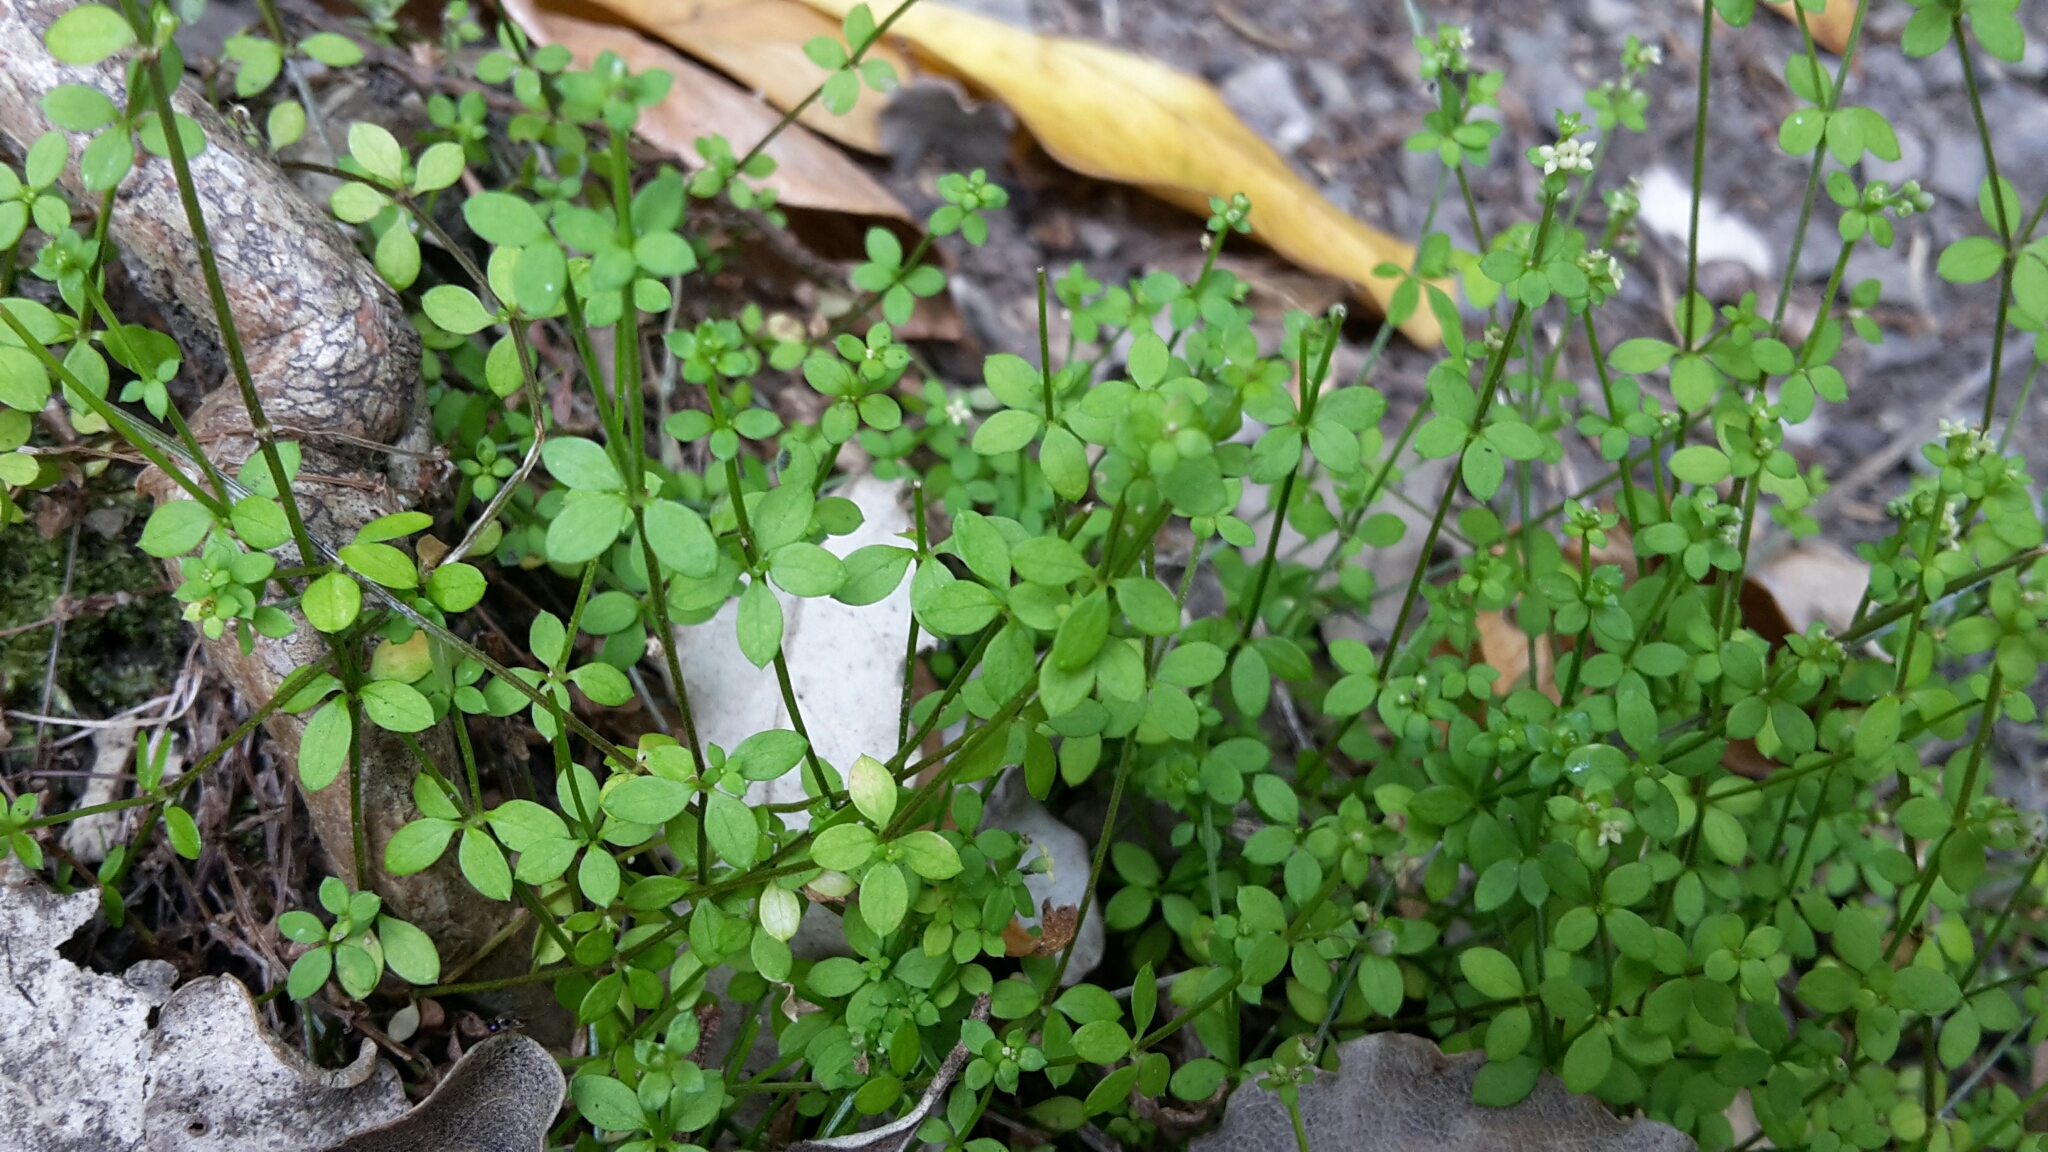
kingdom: Plantae
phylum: Tracheophyta
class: Magnoliopsida
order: Gentianales
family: Rubiaceae
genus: Galium
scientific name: Galium propinquum
